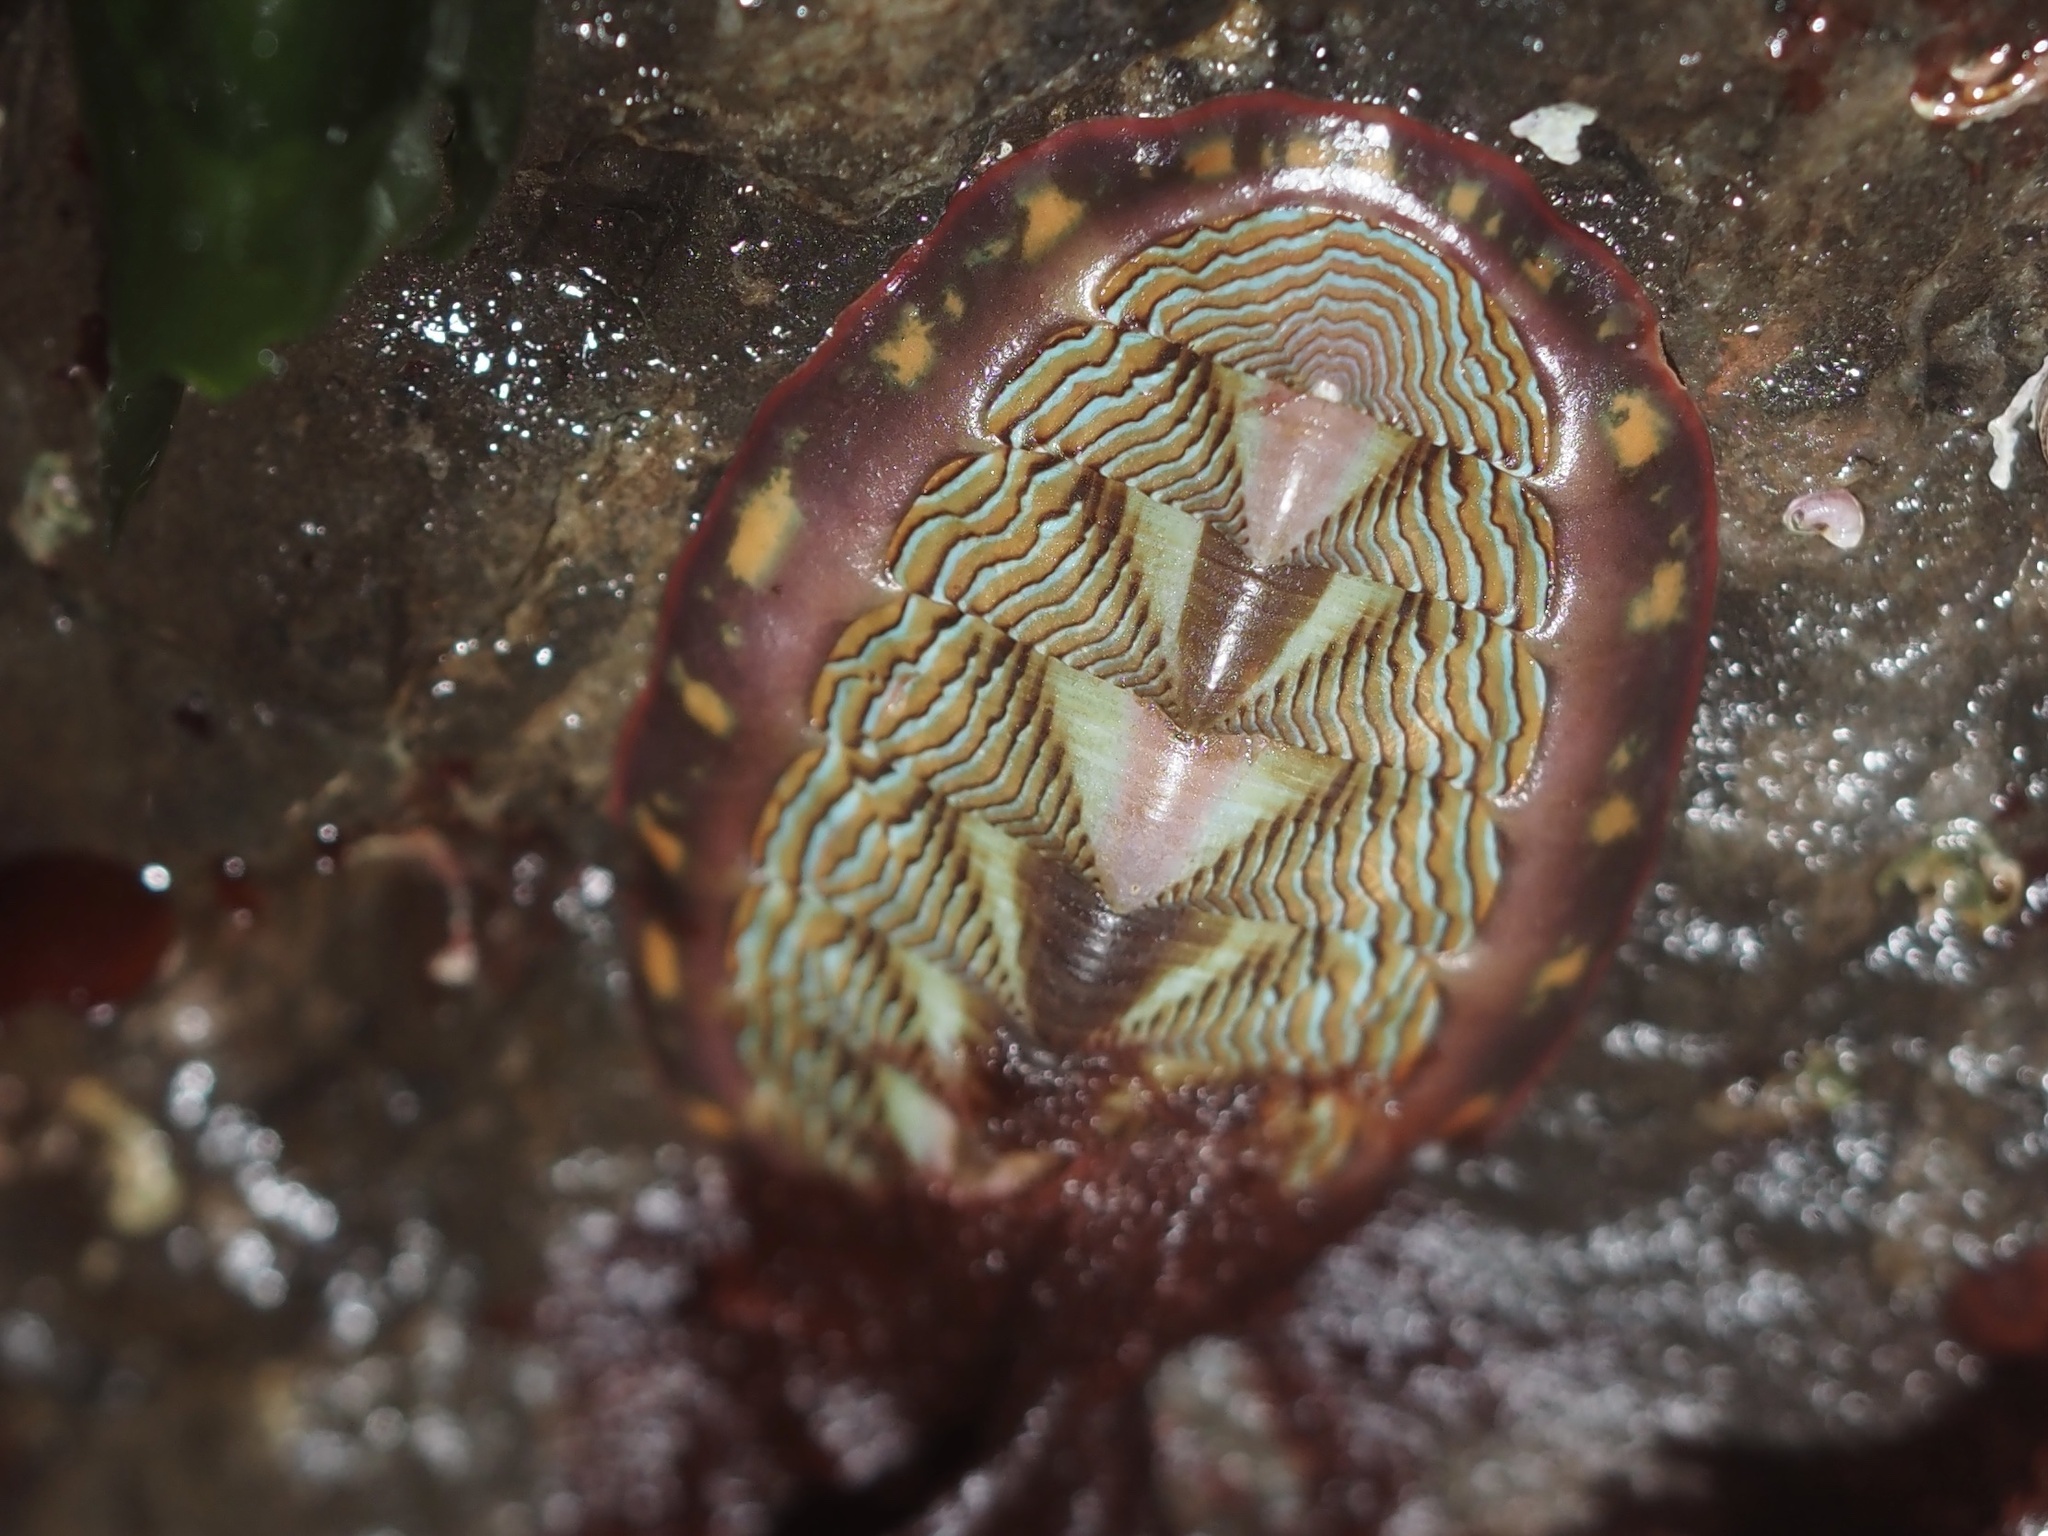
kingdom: Animalia
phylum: Mollusca
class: Polyplacophora
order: Chitonida
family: Tonicellidae
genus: Tonicella
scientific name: Tonicella lineata
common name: Lined chiton
